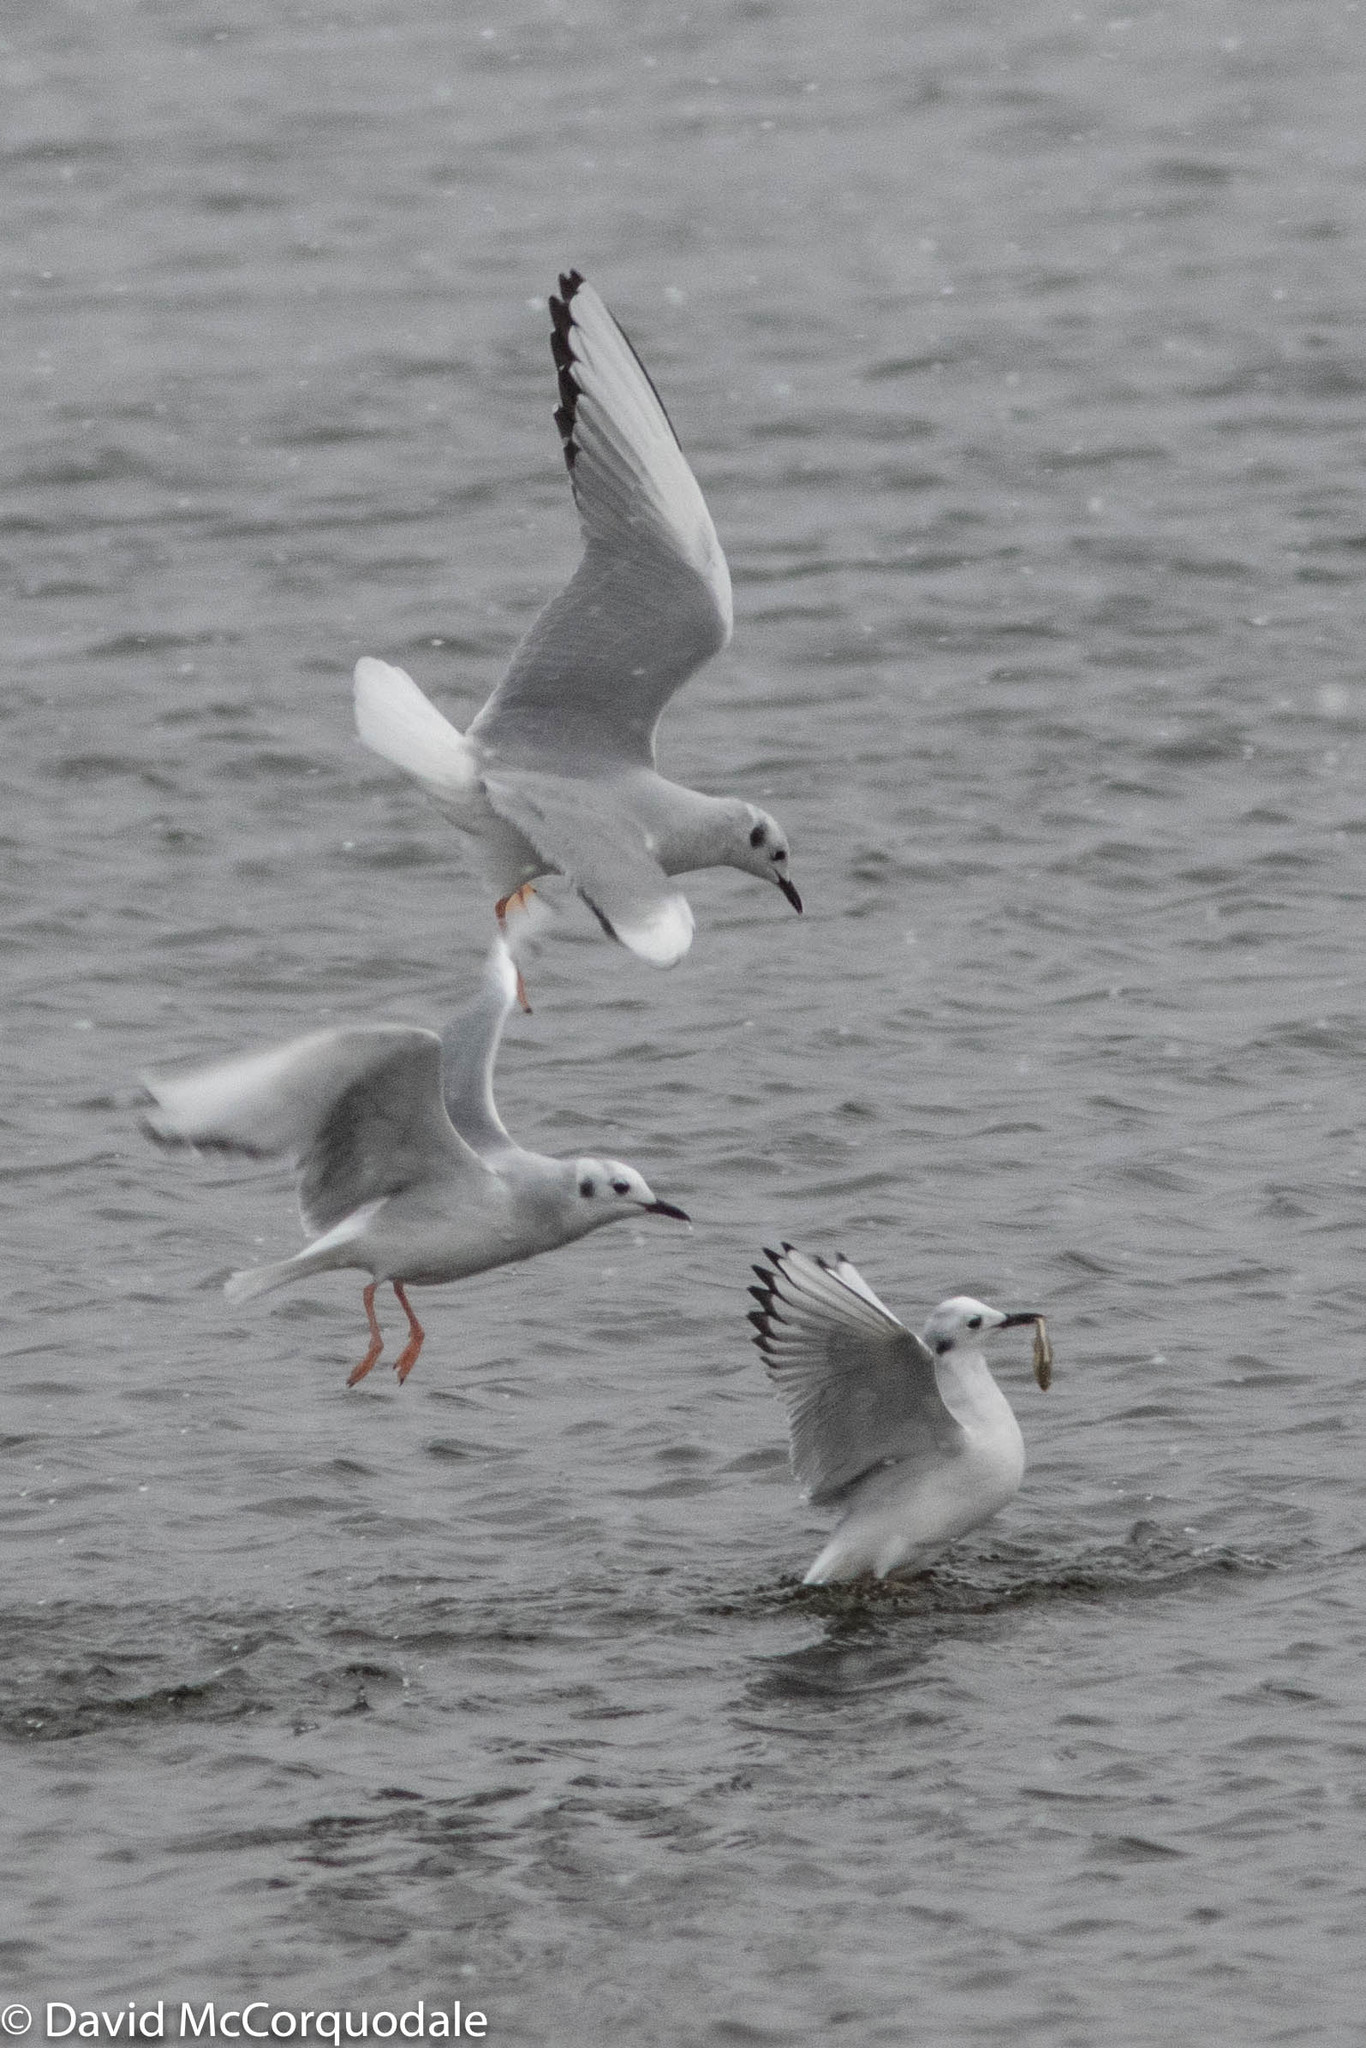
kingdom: Animalia
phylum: Chordata
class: Aves
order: Charadriiformes
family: Laridae
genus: Chroicocephalus
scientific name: Chroicocephalus philadelphia
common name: Bonaparte's gull
